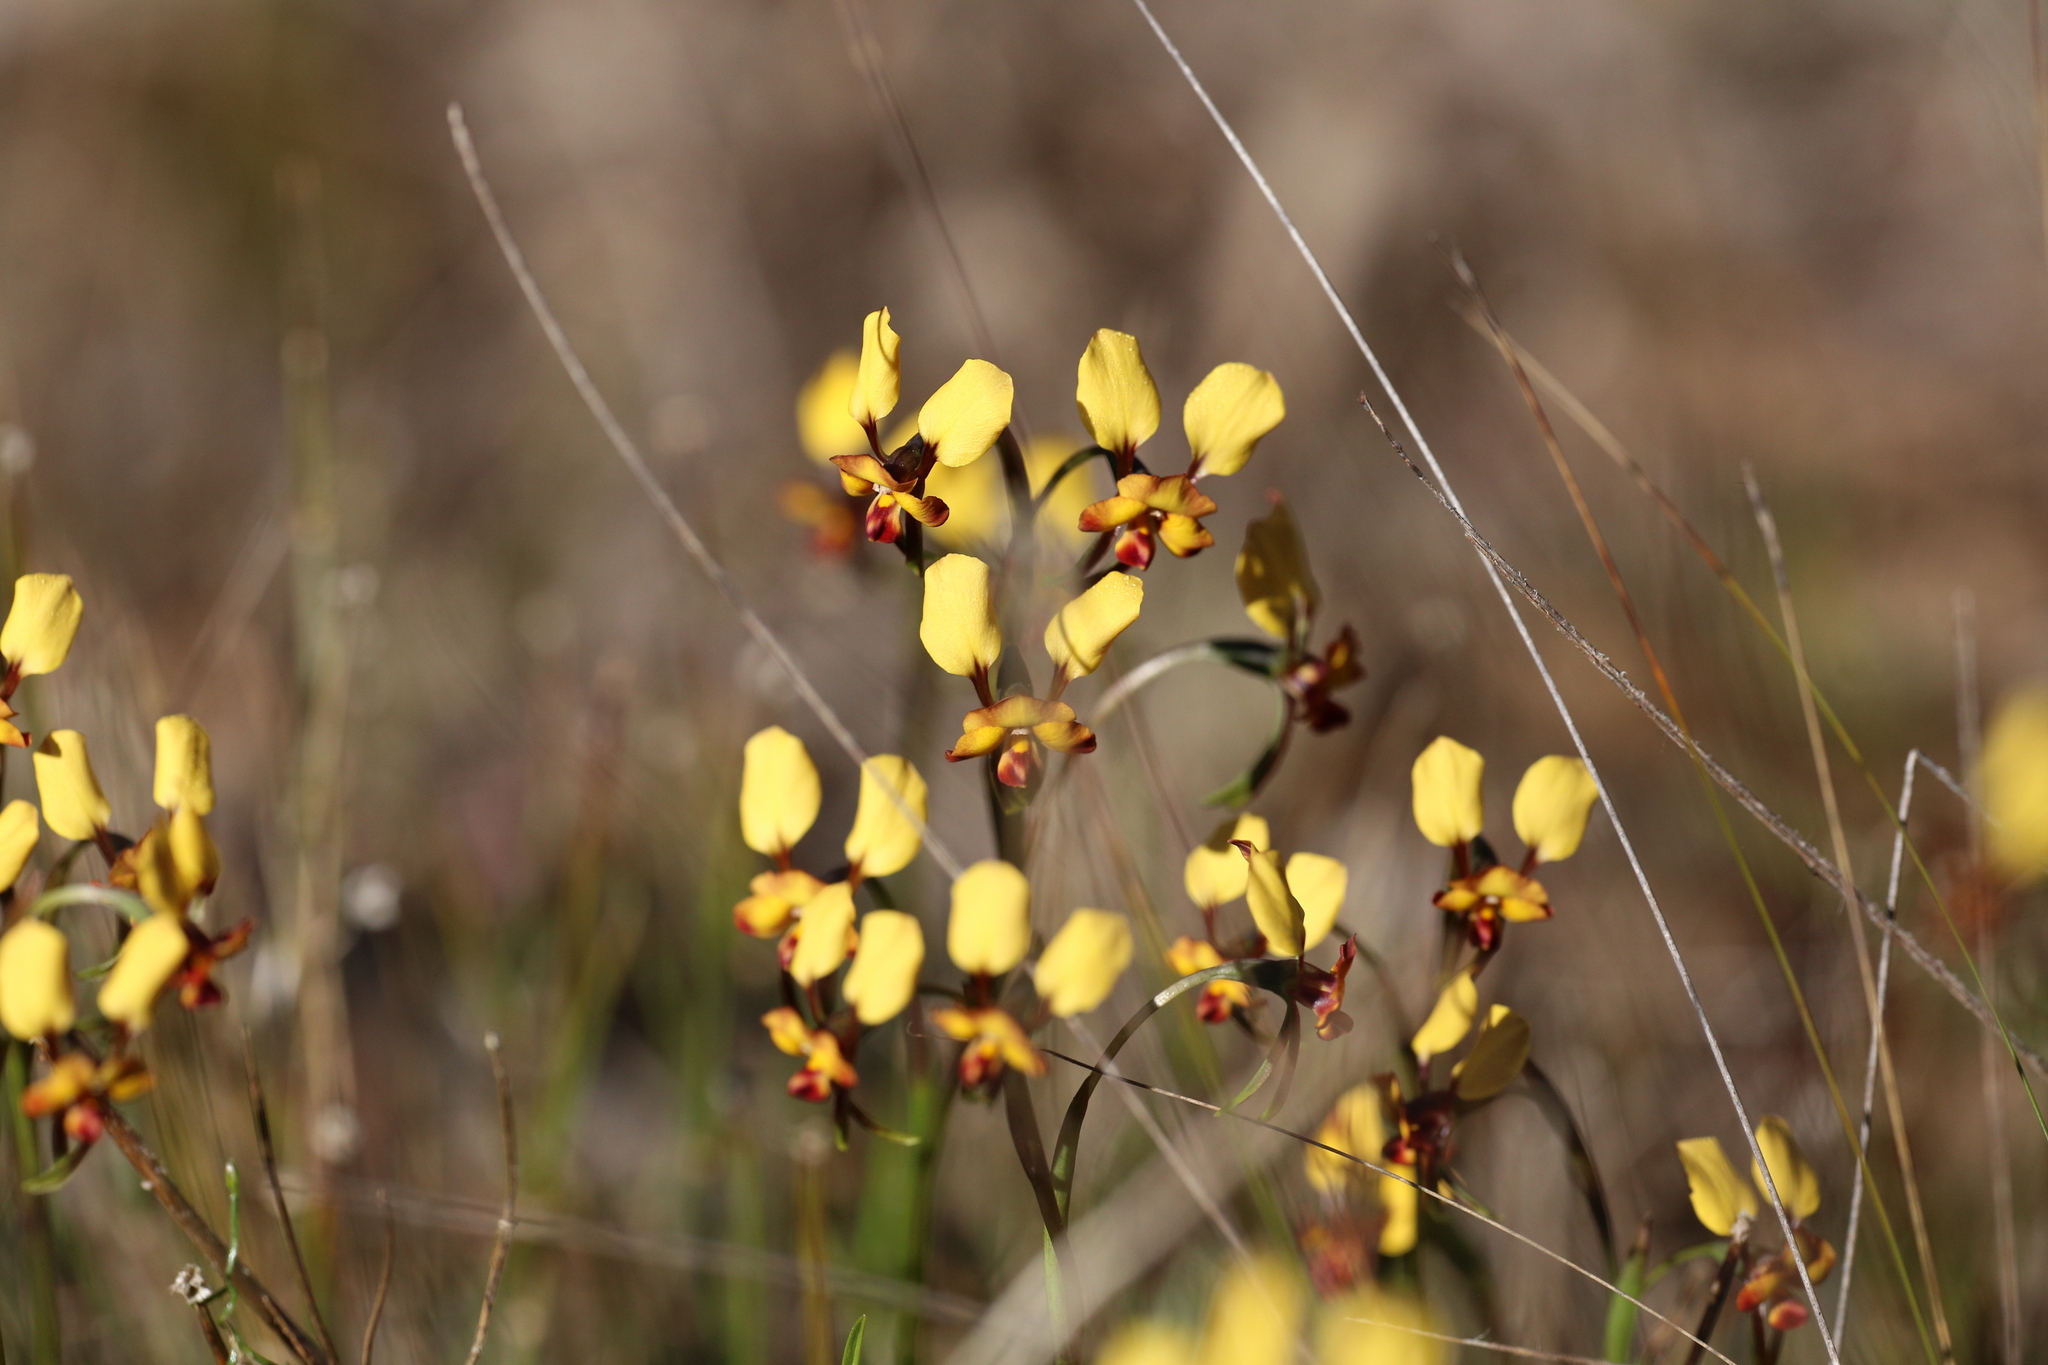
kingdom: Plantae
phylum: Tracheophyta
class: Liliopsida
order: Asparagales
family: Orchidaceae
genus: Diuris
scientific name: Diuris porrifolia
